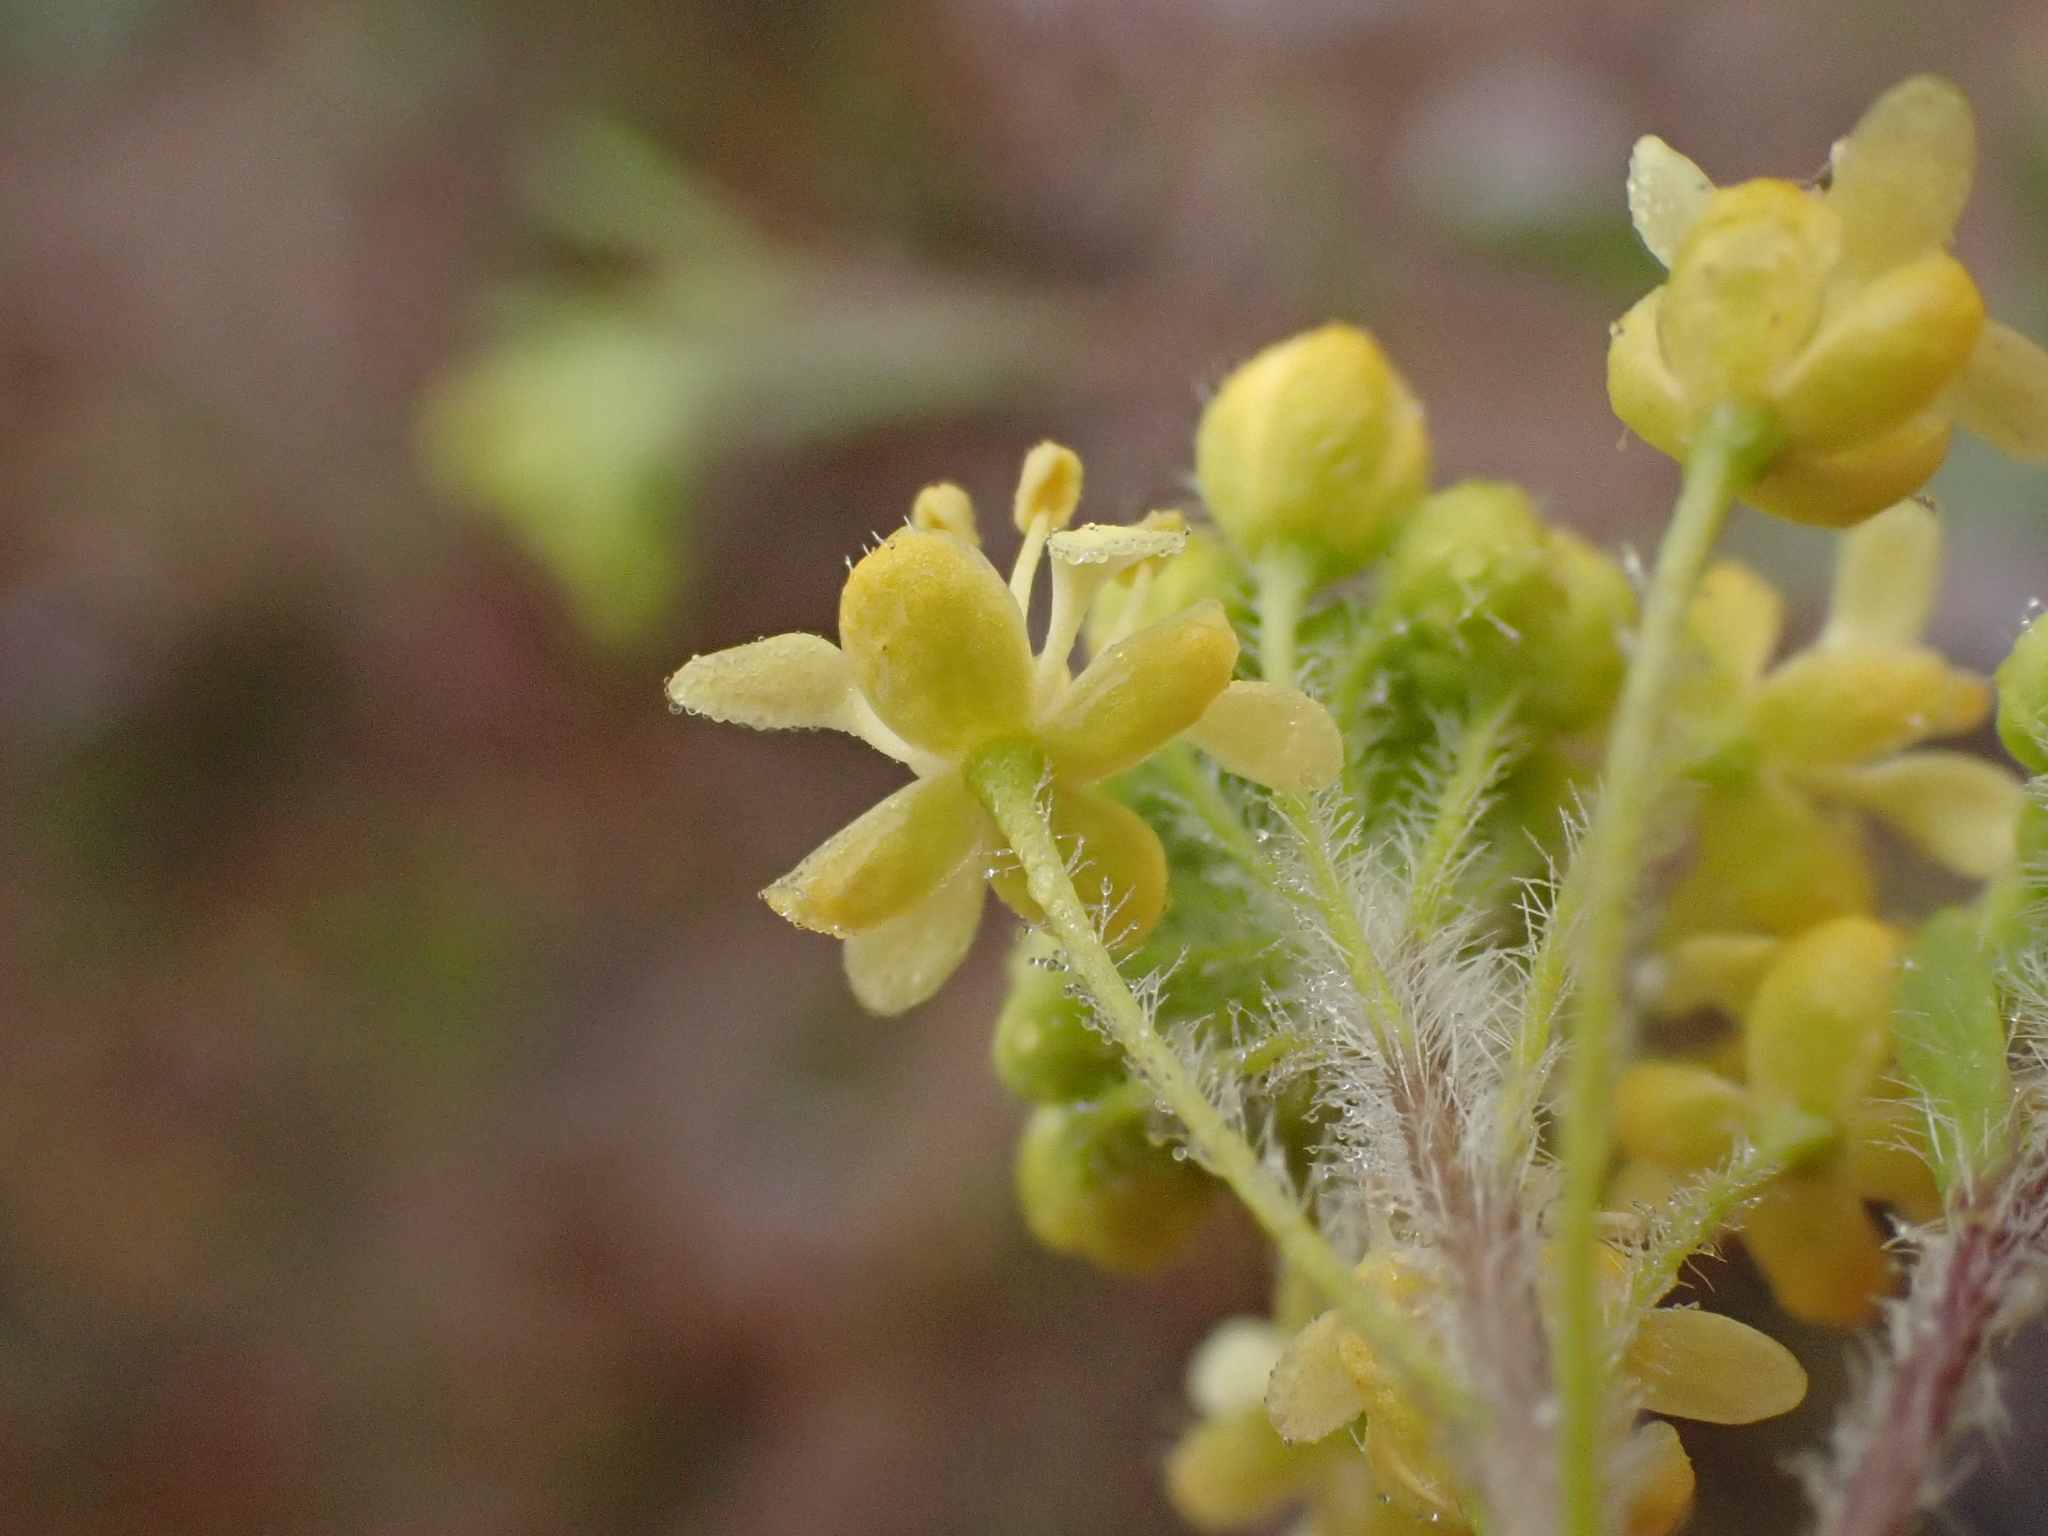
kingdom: Plantae
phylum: Tracheophyta
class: Magnoliopsida
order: Brassicales
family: Brassicaceae
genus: Lepidium
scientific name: Lepidium jaredii
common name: Jared's peppergrass
